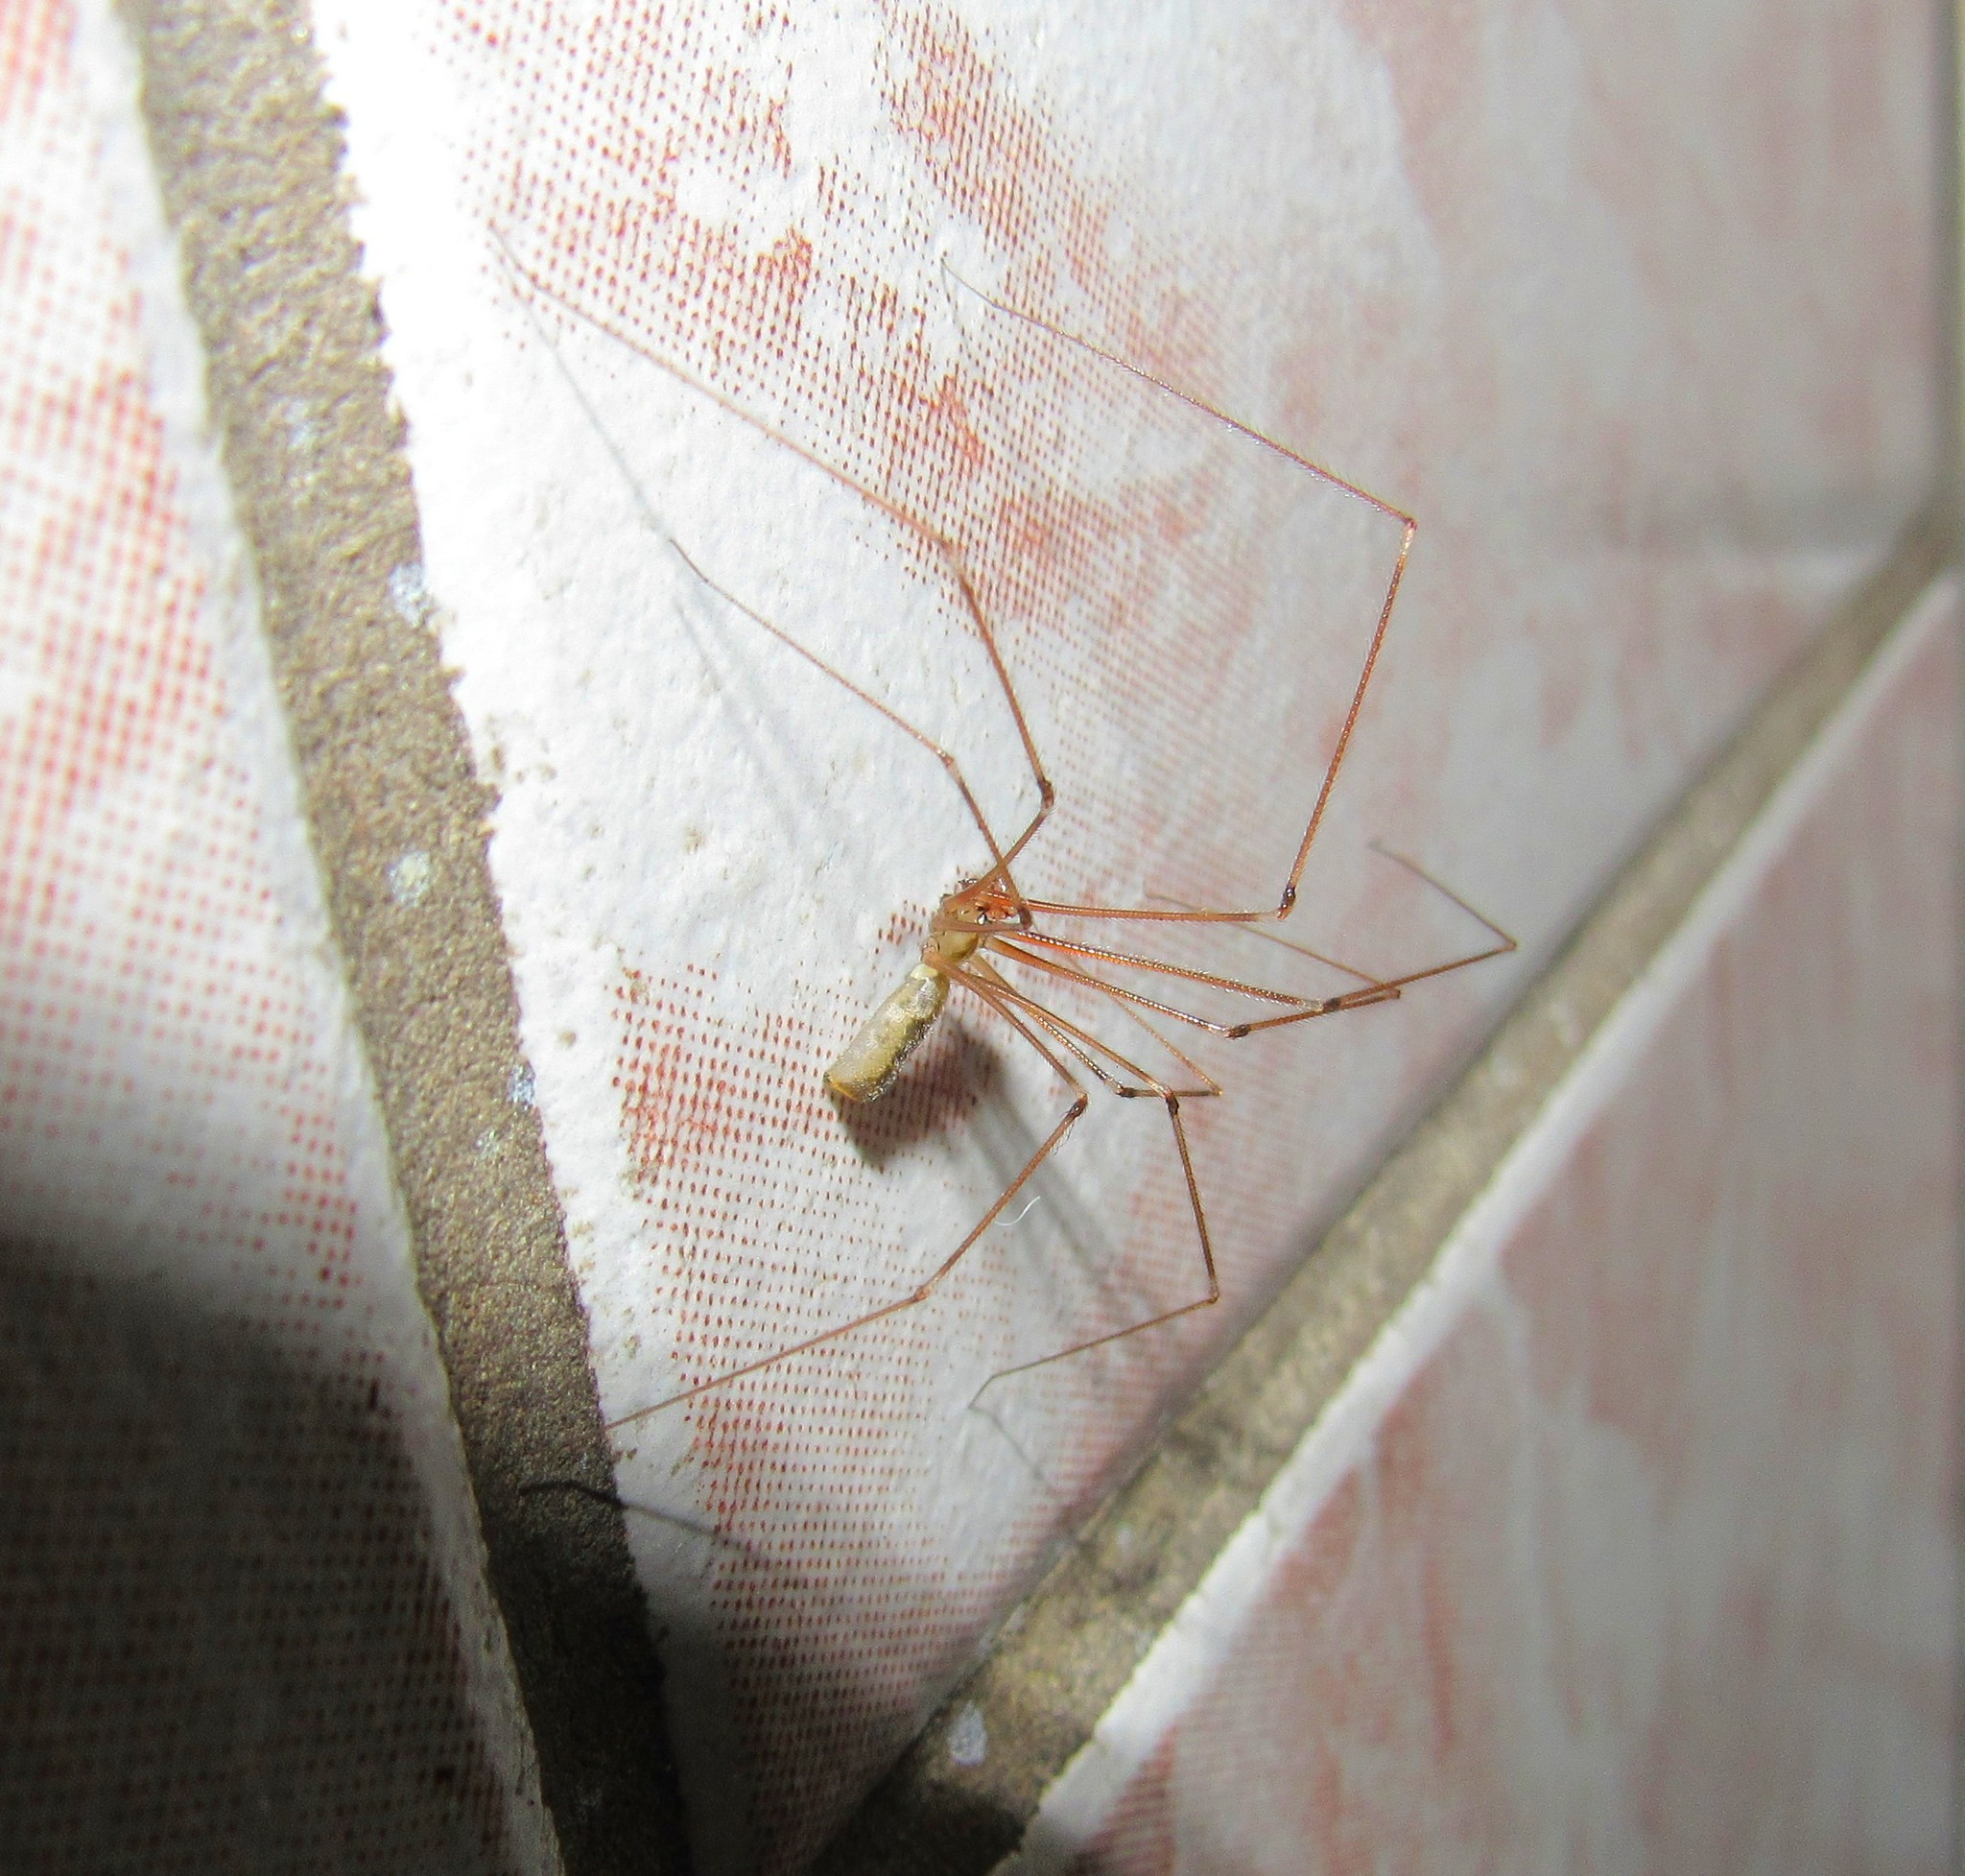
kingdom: Animalia
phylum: Arthropoda
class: Arachnida
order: Araneae
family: Pholcidae
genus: Pholcus
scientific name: Pholcus phalangioides
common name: Longbodied cellar spider
